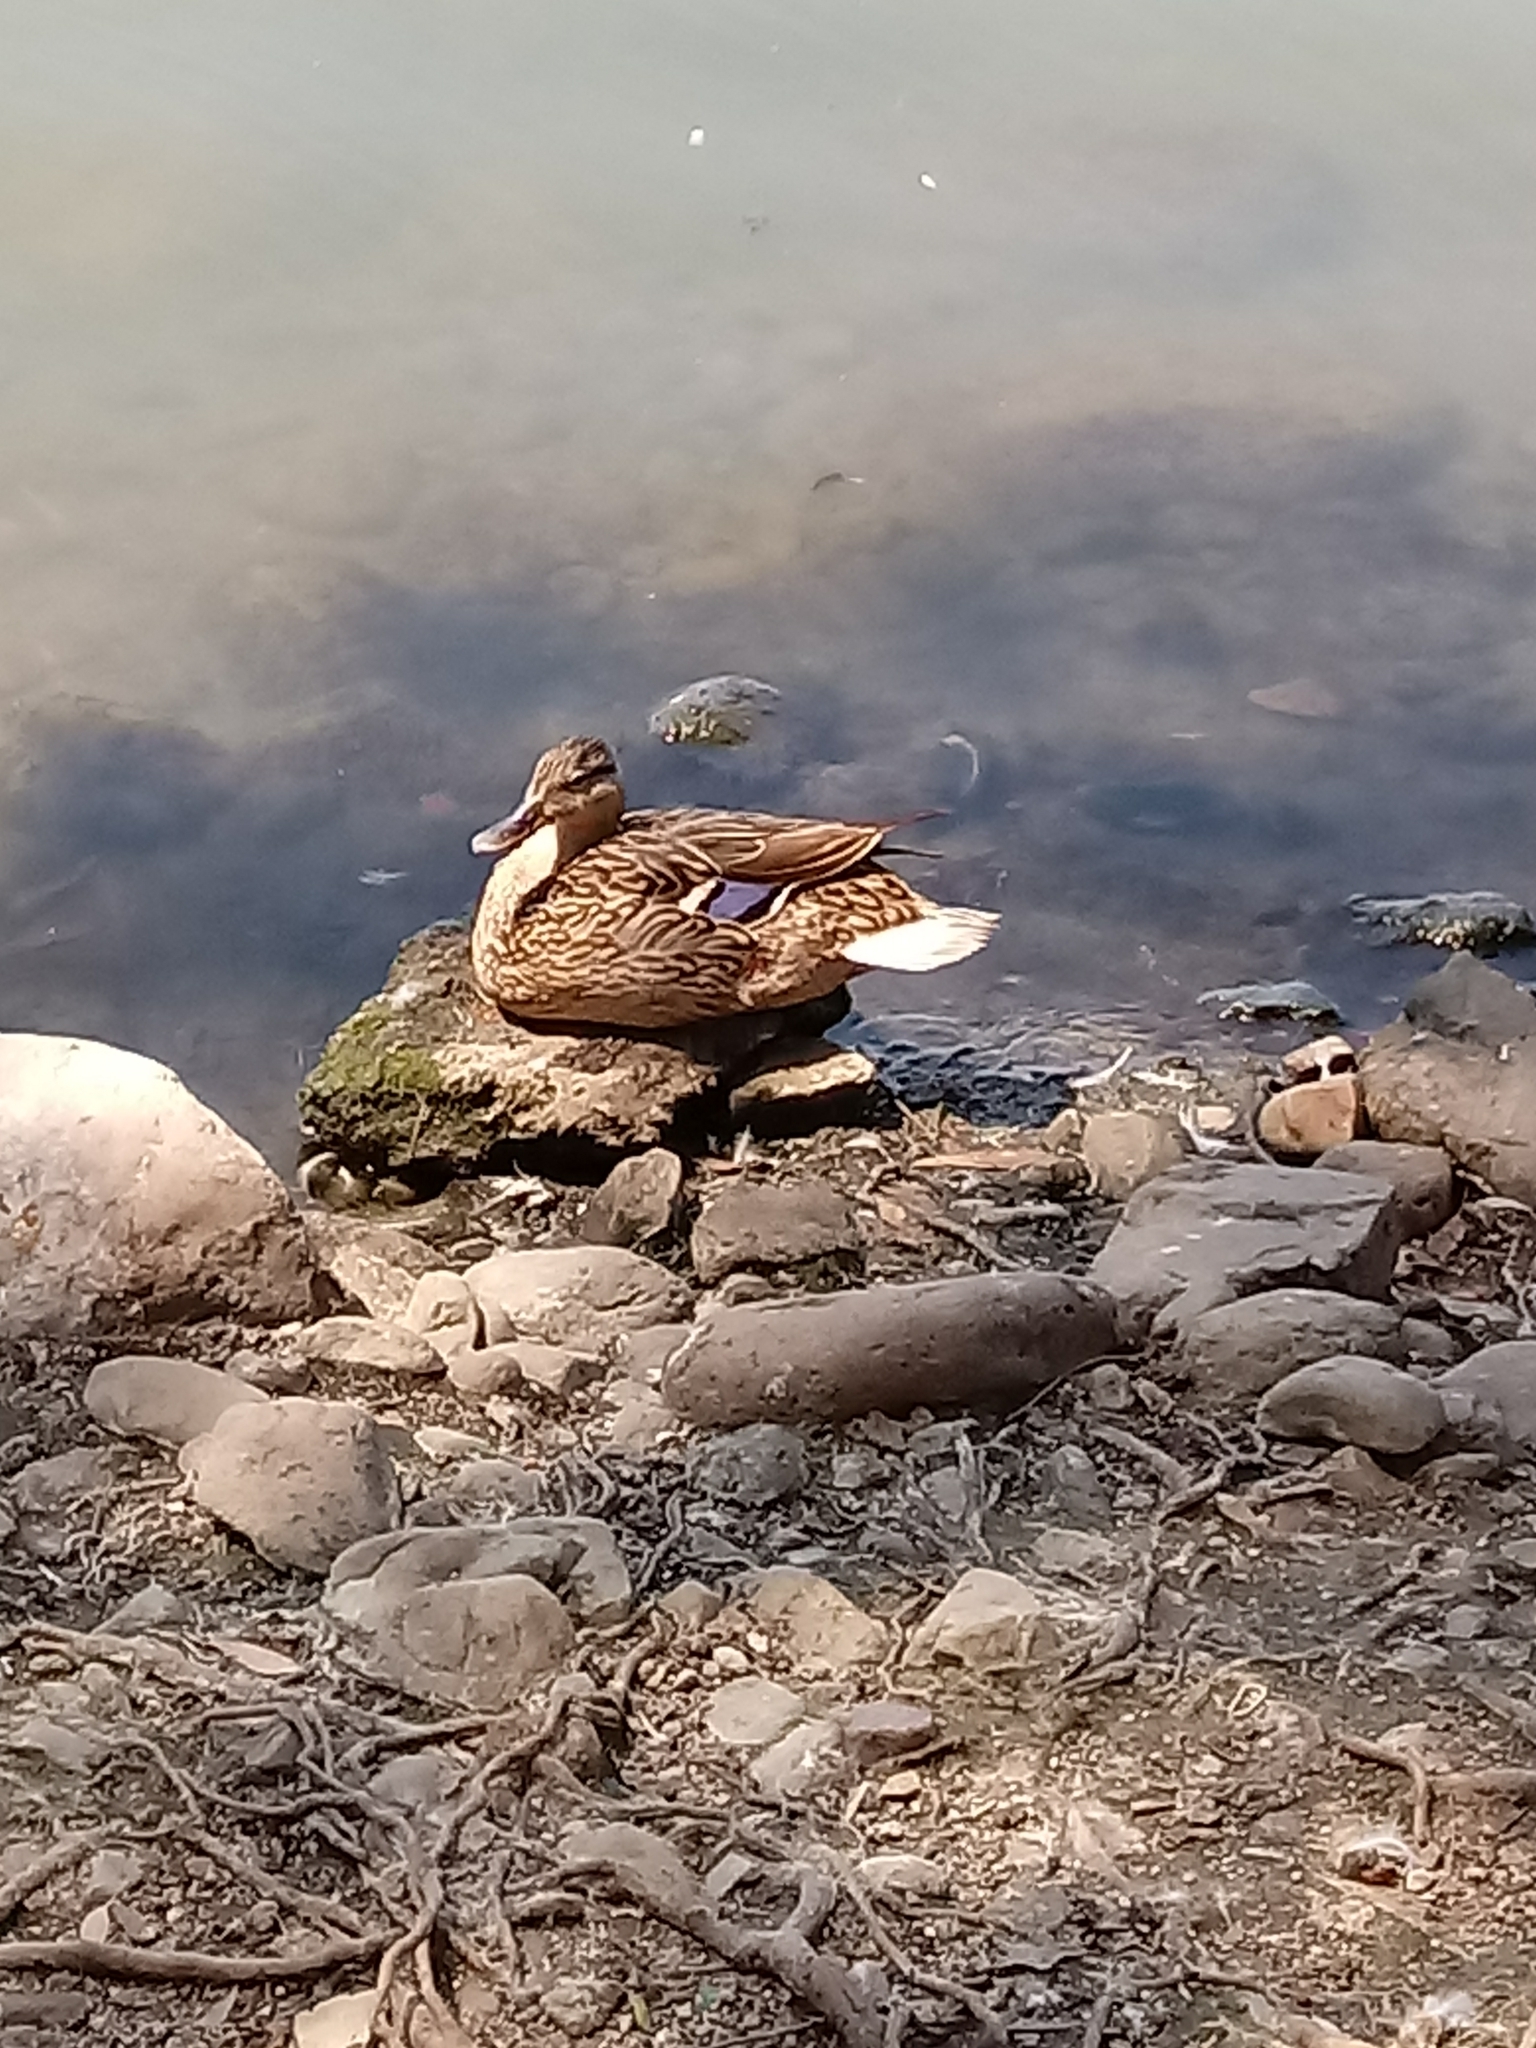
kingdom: Animalia
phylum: Chordata
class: Aves
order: Anseriformes
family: Anatidae
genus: Anas
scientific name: Anas platyrhynchos
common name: Mallard
